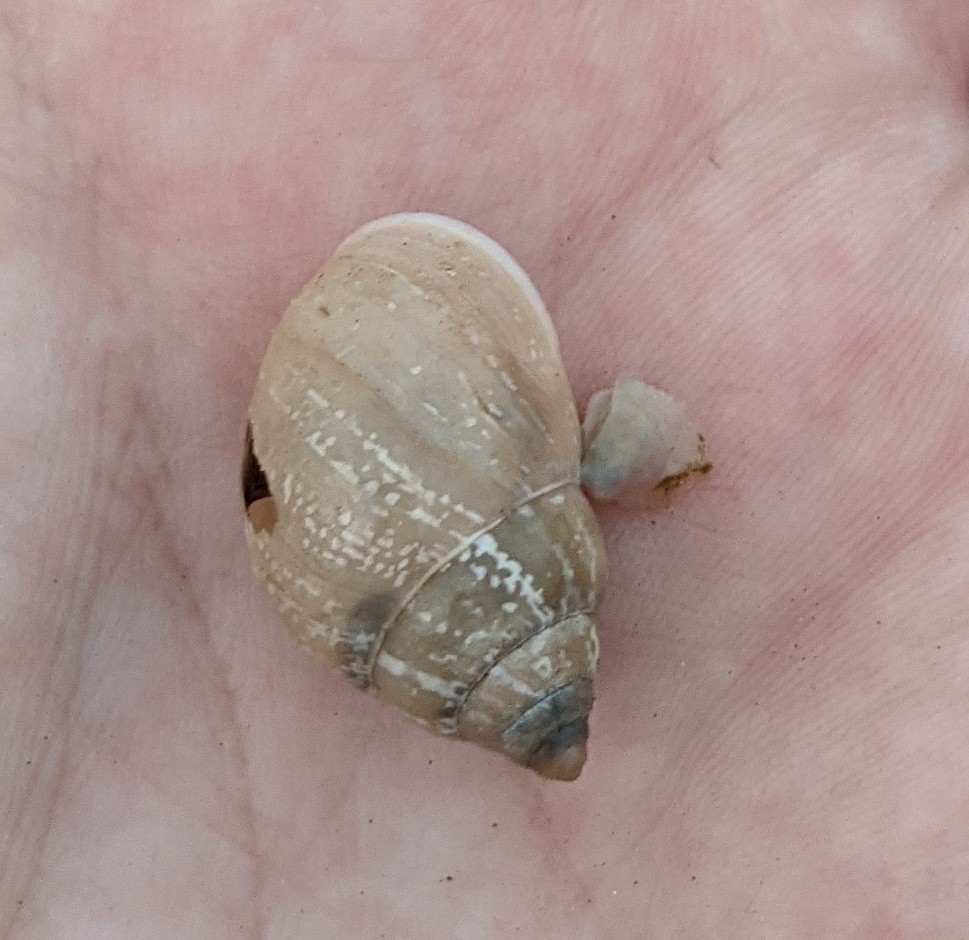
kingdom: Animalia
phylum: Mollusca
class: Gastropoda
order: Stylommatophora
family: Bulimulidae
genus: Rabdotus
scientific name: Rabdotus dealbatus
